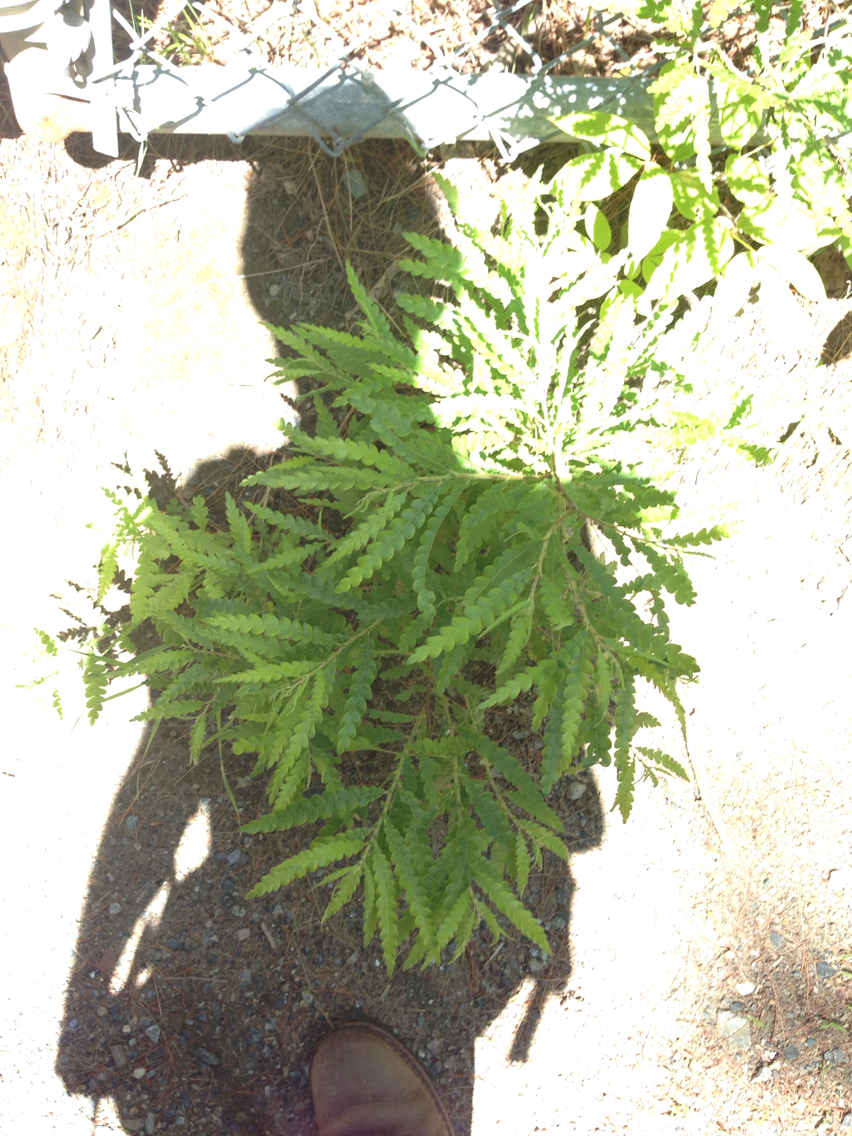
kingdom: Plantae
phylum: Tracheophyta
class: Magnoliopsida
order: Fagales
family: Myricaceae
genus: Comptonia
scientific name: Comptonia peregrina
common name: Sweet-fern
